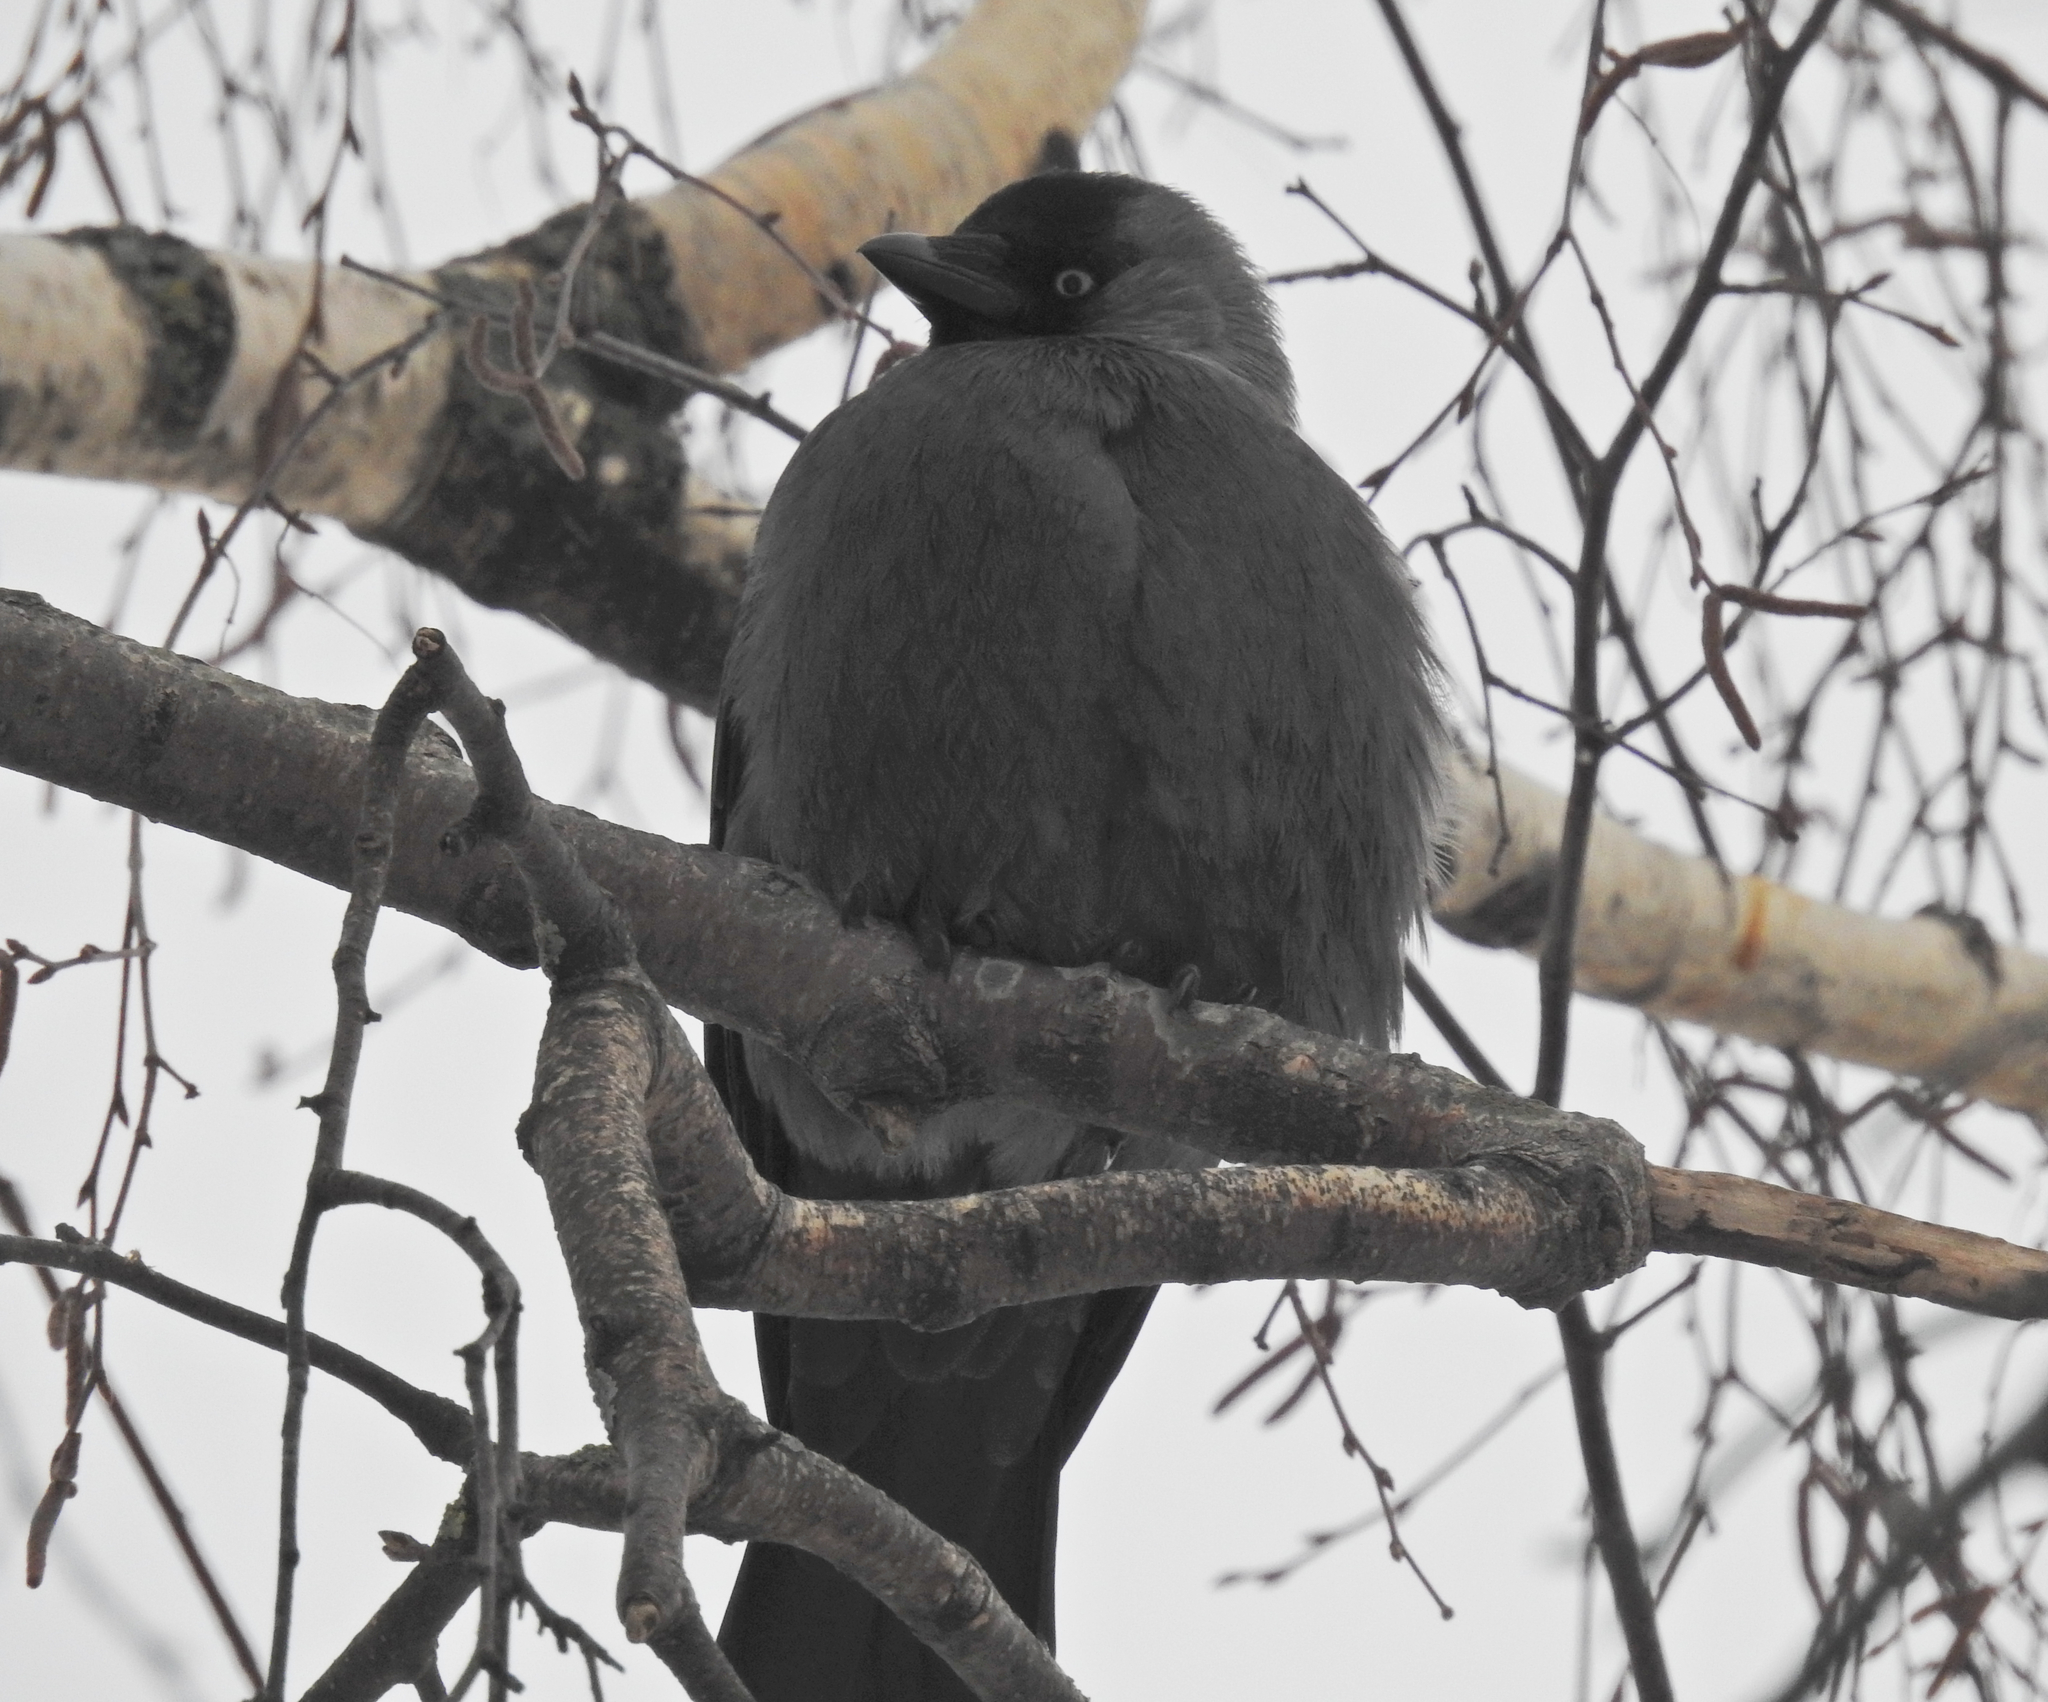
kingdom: Animalia
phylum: Chordata
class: Aves
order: Passeriformes
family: Corvidae
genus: Coloeus
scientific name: Coloeus monedula
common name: Western jackdaw
